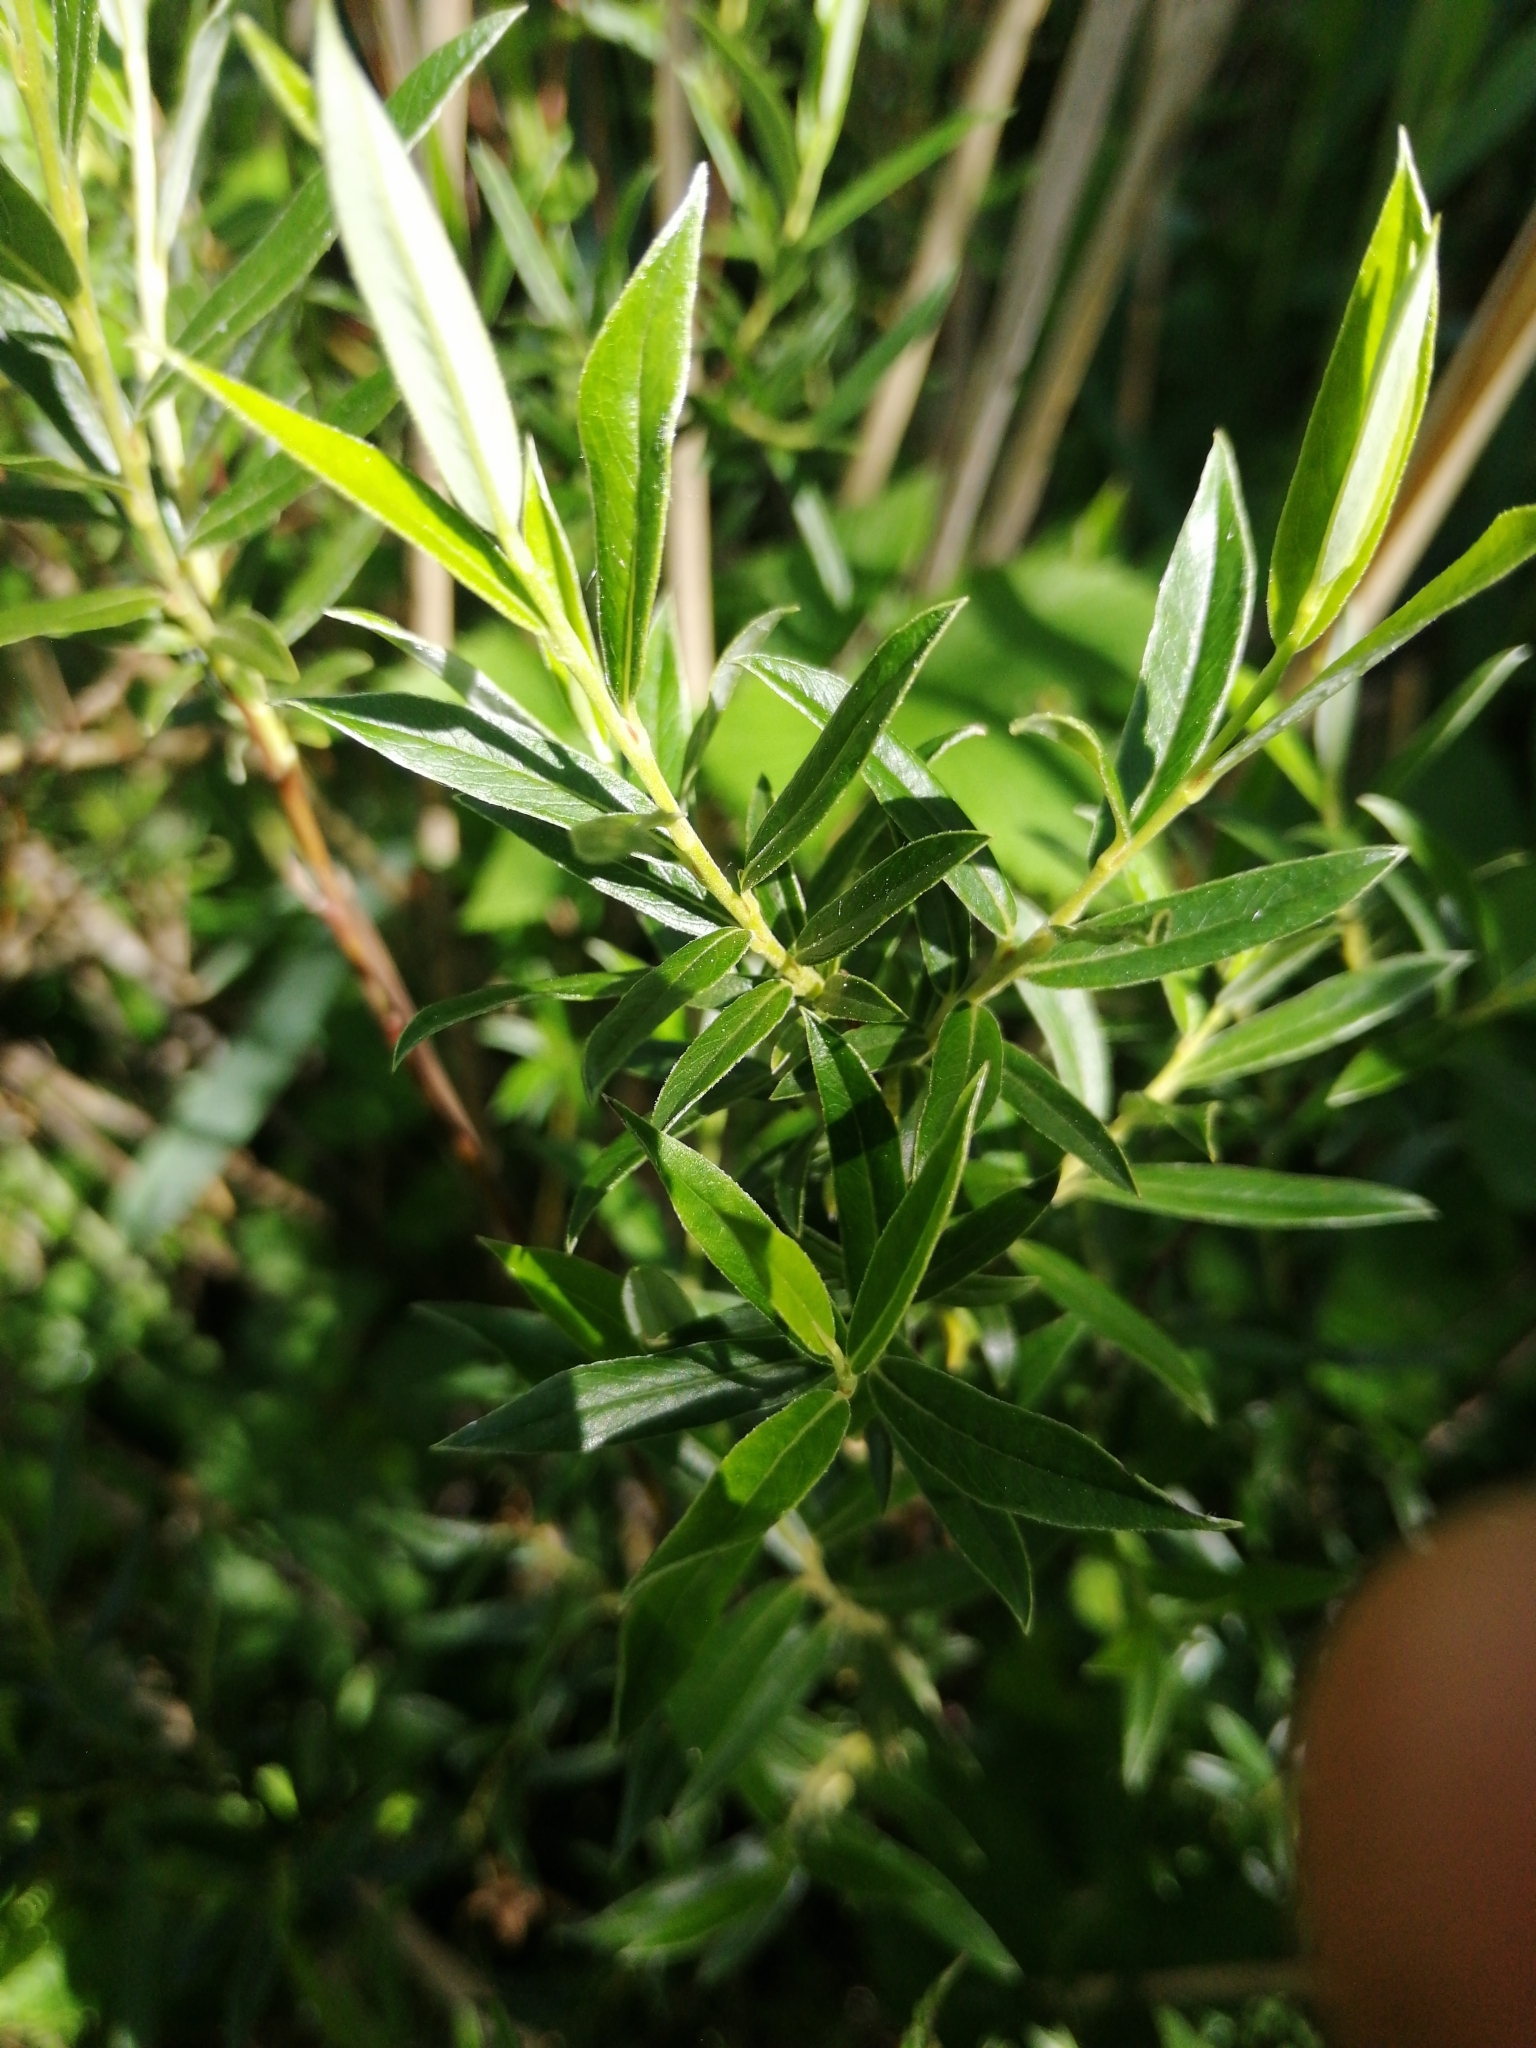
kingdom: Plantae
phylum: Tracheophyta
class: Magnoliopsida
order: Malpighiales
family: Salicaceae
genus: Salix
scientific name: Salix rosmarinifolia
